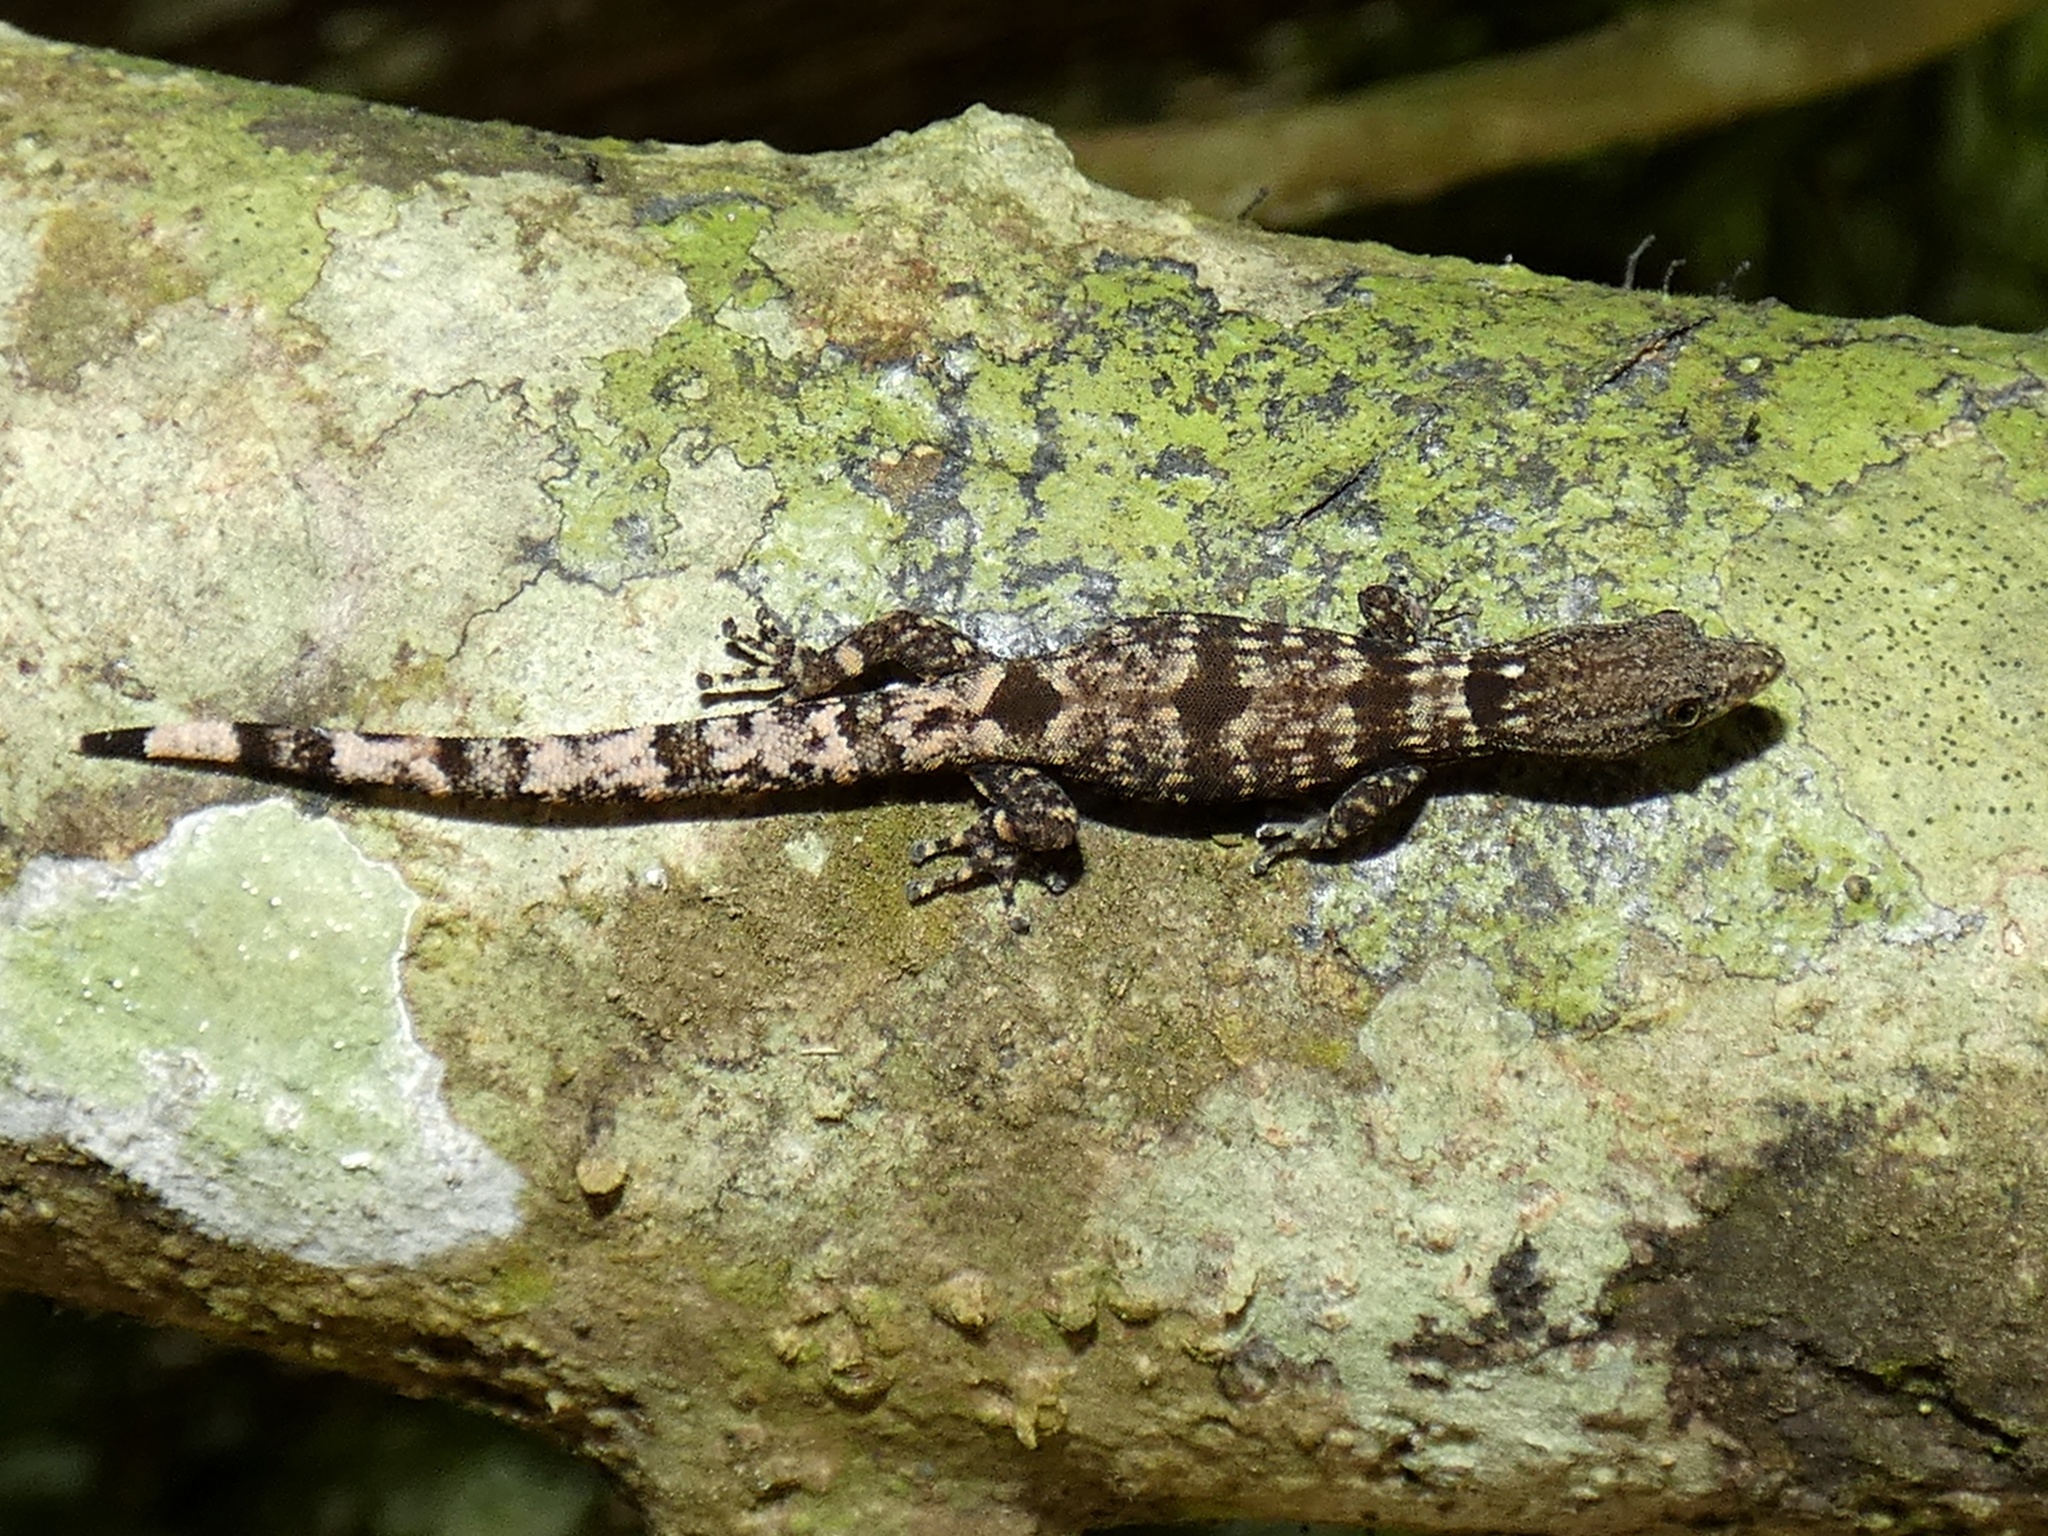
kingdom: Animalia
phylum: Chordata
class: Squamata
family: Sphaerodactylidae
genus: Sphaerodactylus
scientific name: Sphaerodactylus lineolatus
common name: Panama least gecko
